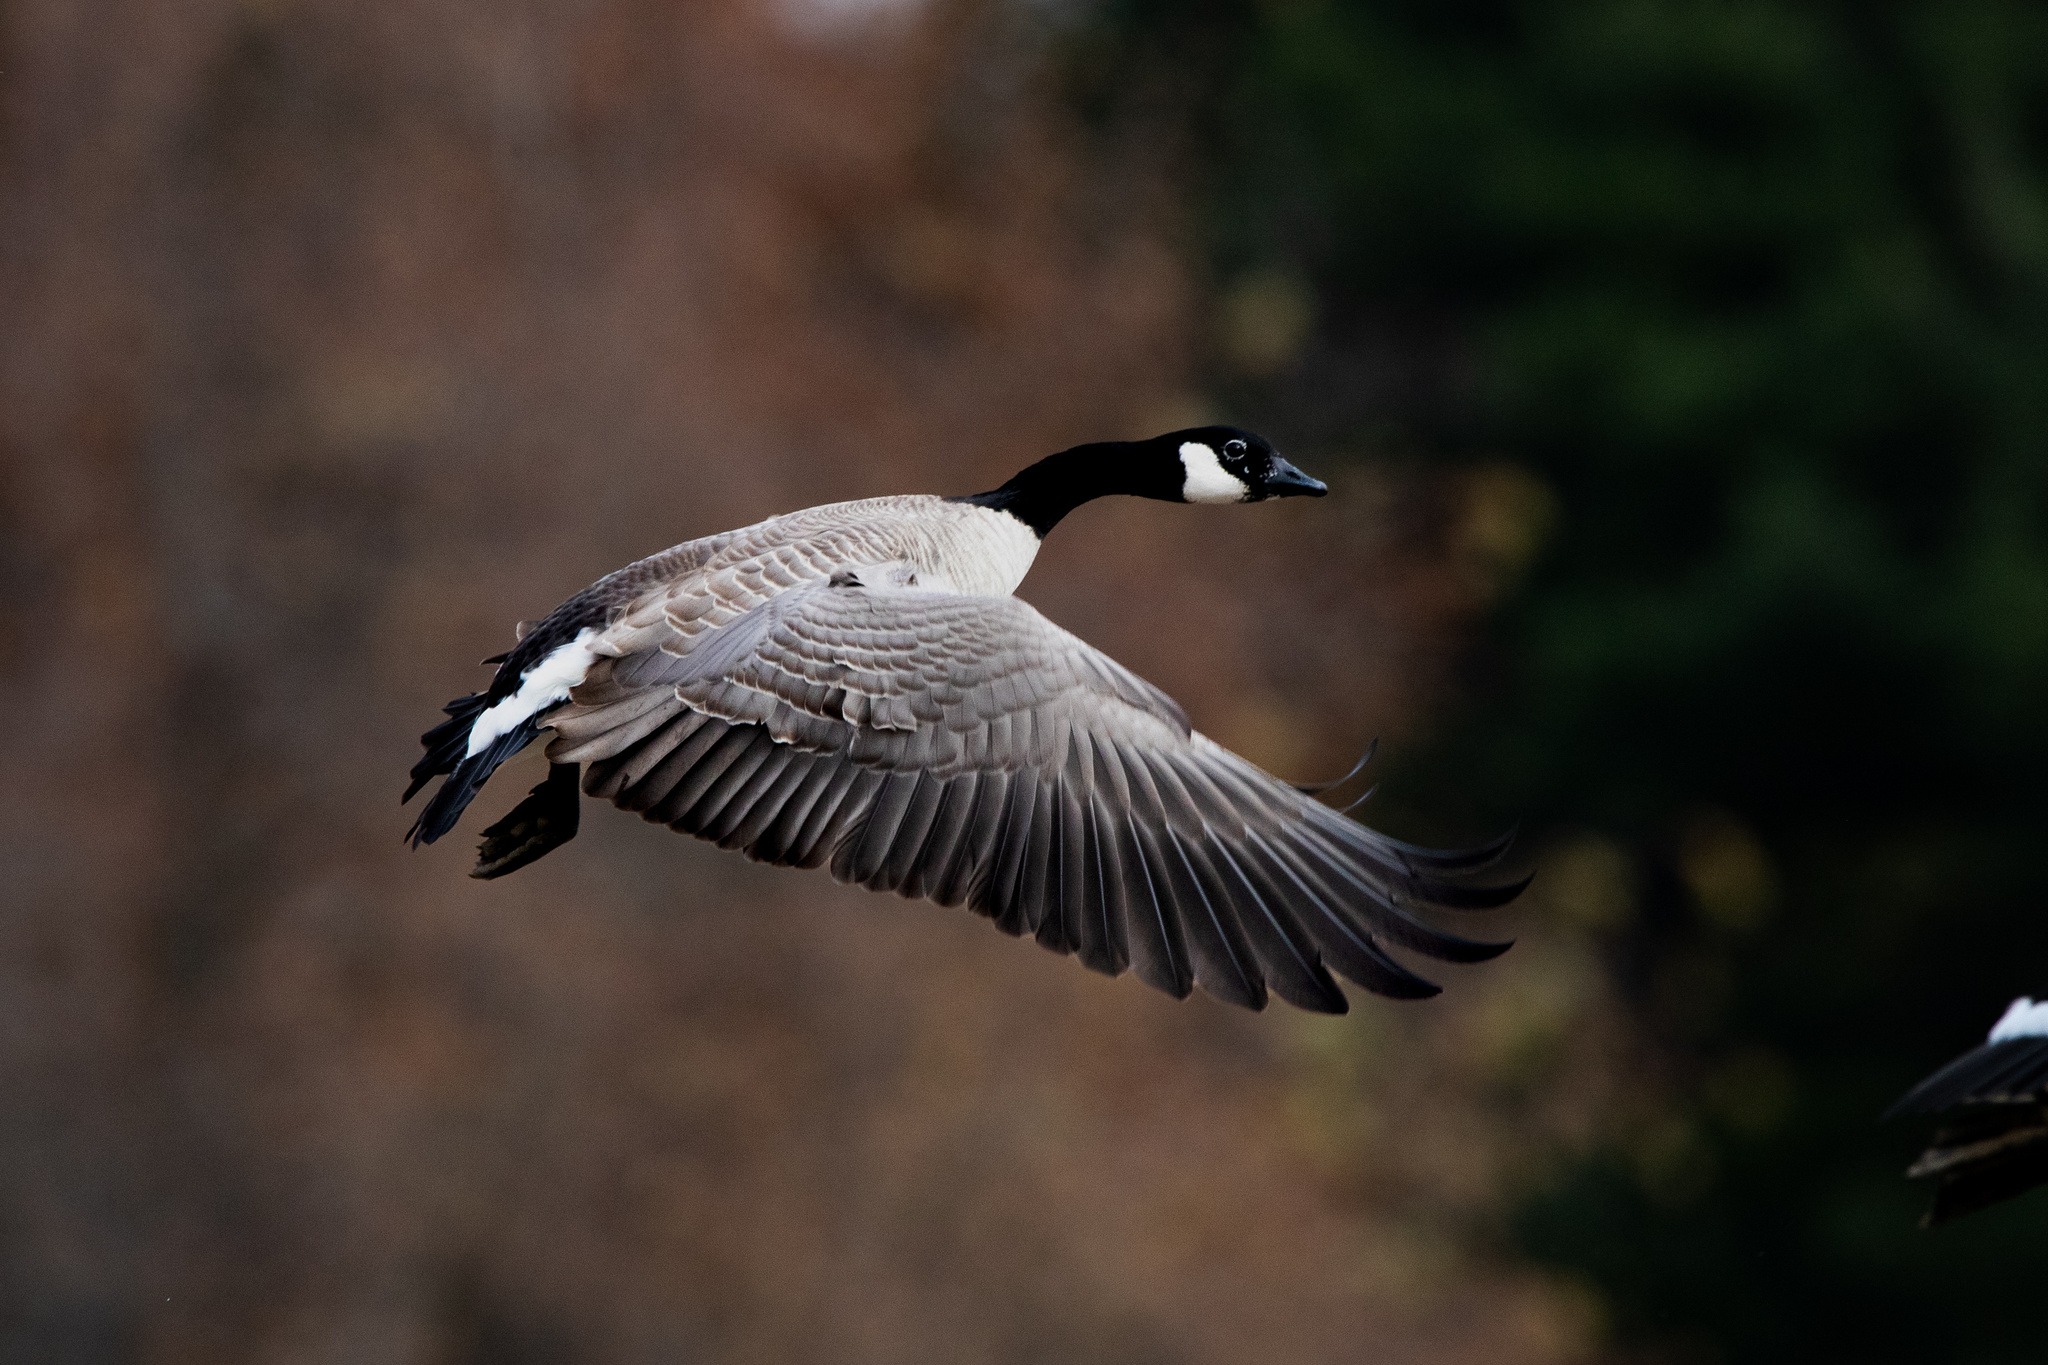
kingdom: Animalia
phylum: Chordata
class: Aves
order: Anseriformes
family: Anatidae
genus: Branta
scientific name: Branta hutchinsii
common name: Cackling goose
